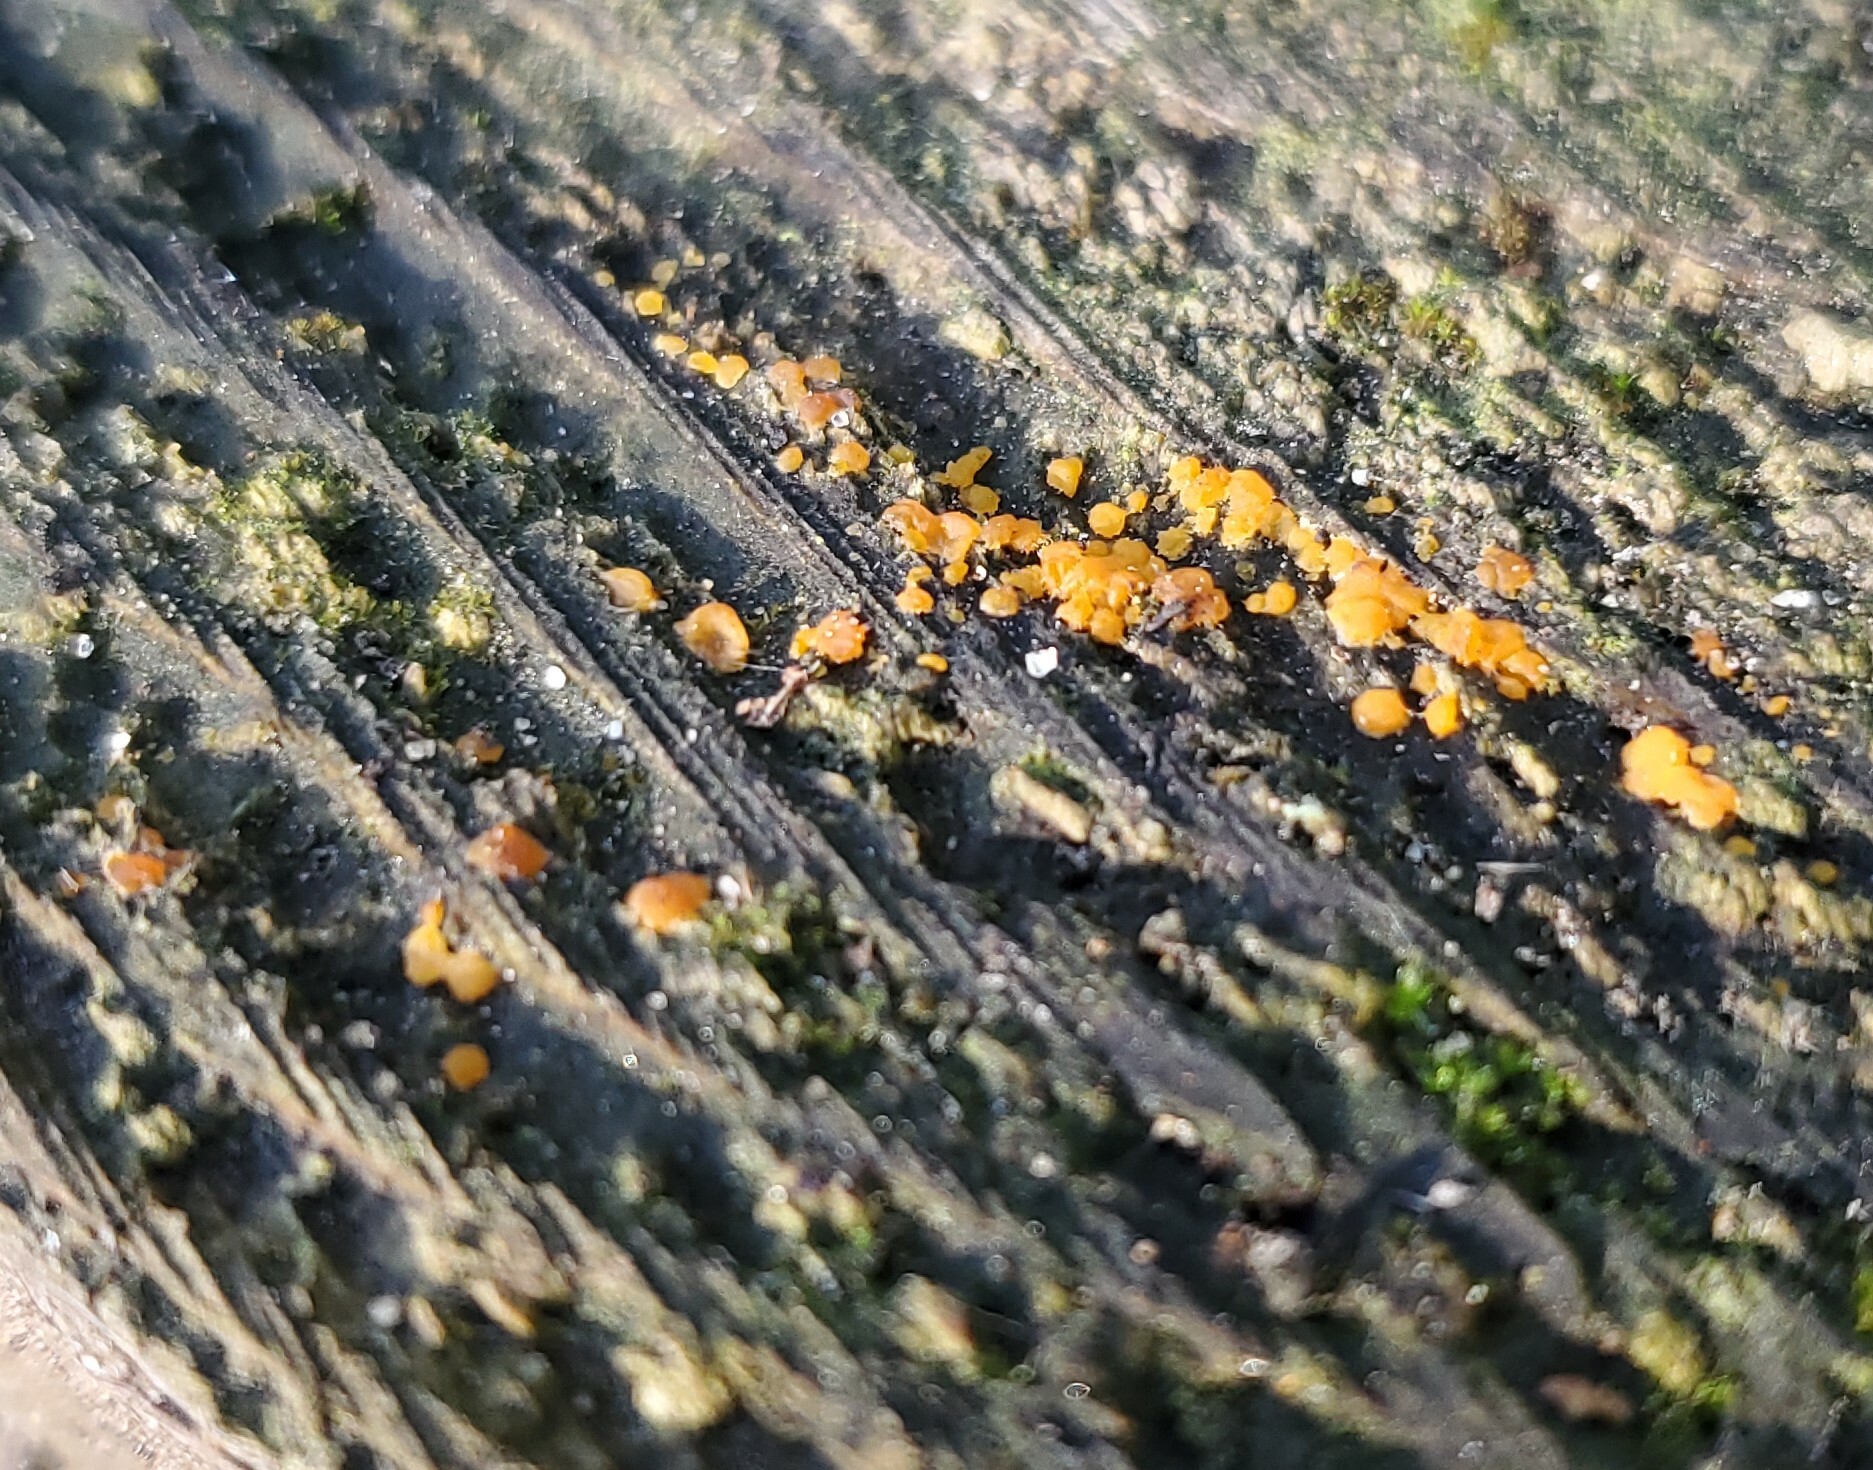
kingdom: Fungi
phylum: Basidiomycota
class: Dacrymycetes
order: Dacrymycetales
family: Dacrymycetaceae
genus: Dacrymyces
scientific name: Dacrymyces stillatus
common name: Common jelly spot
